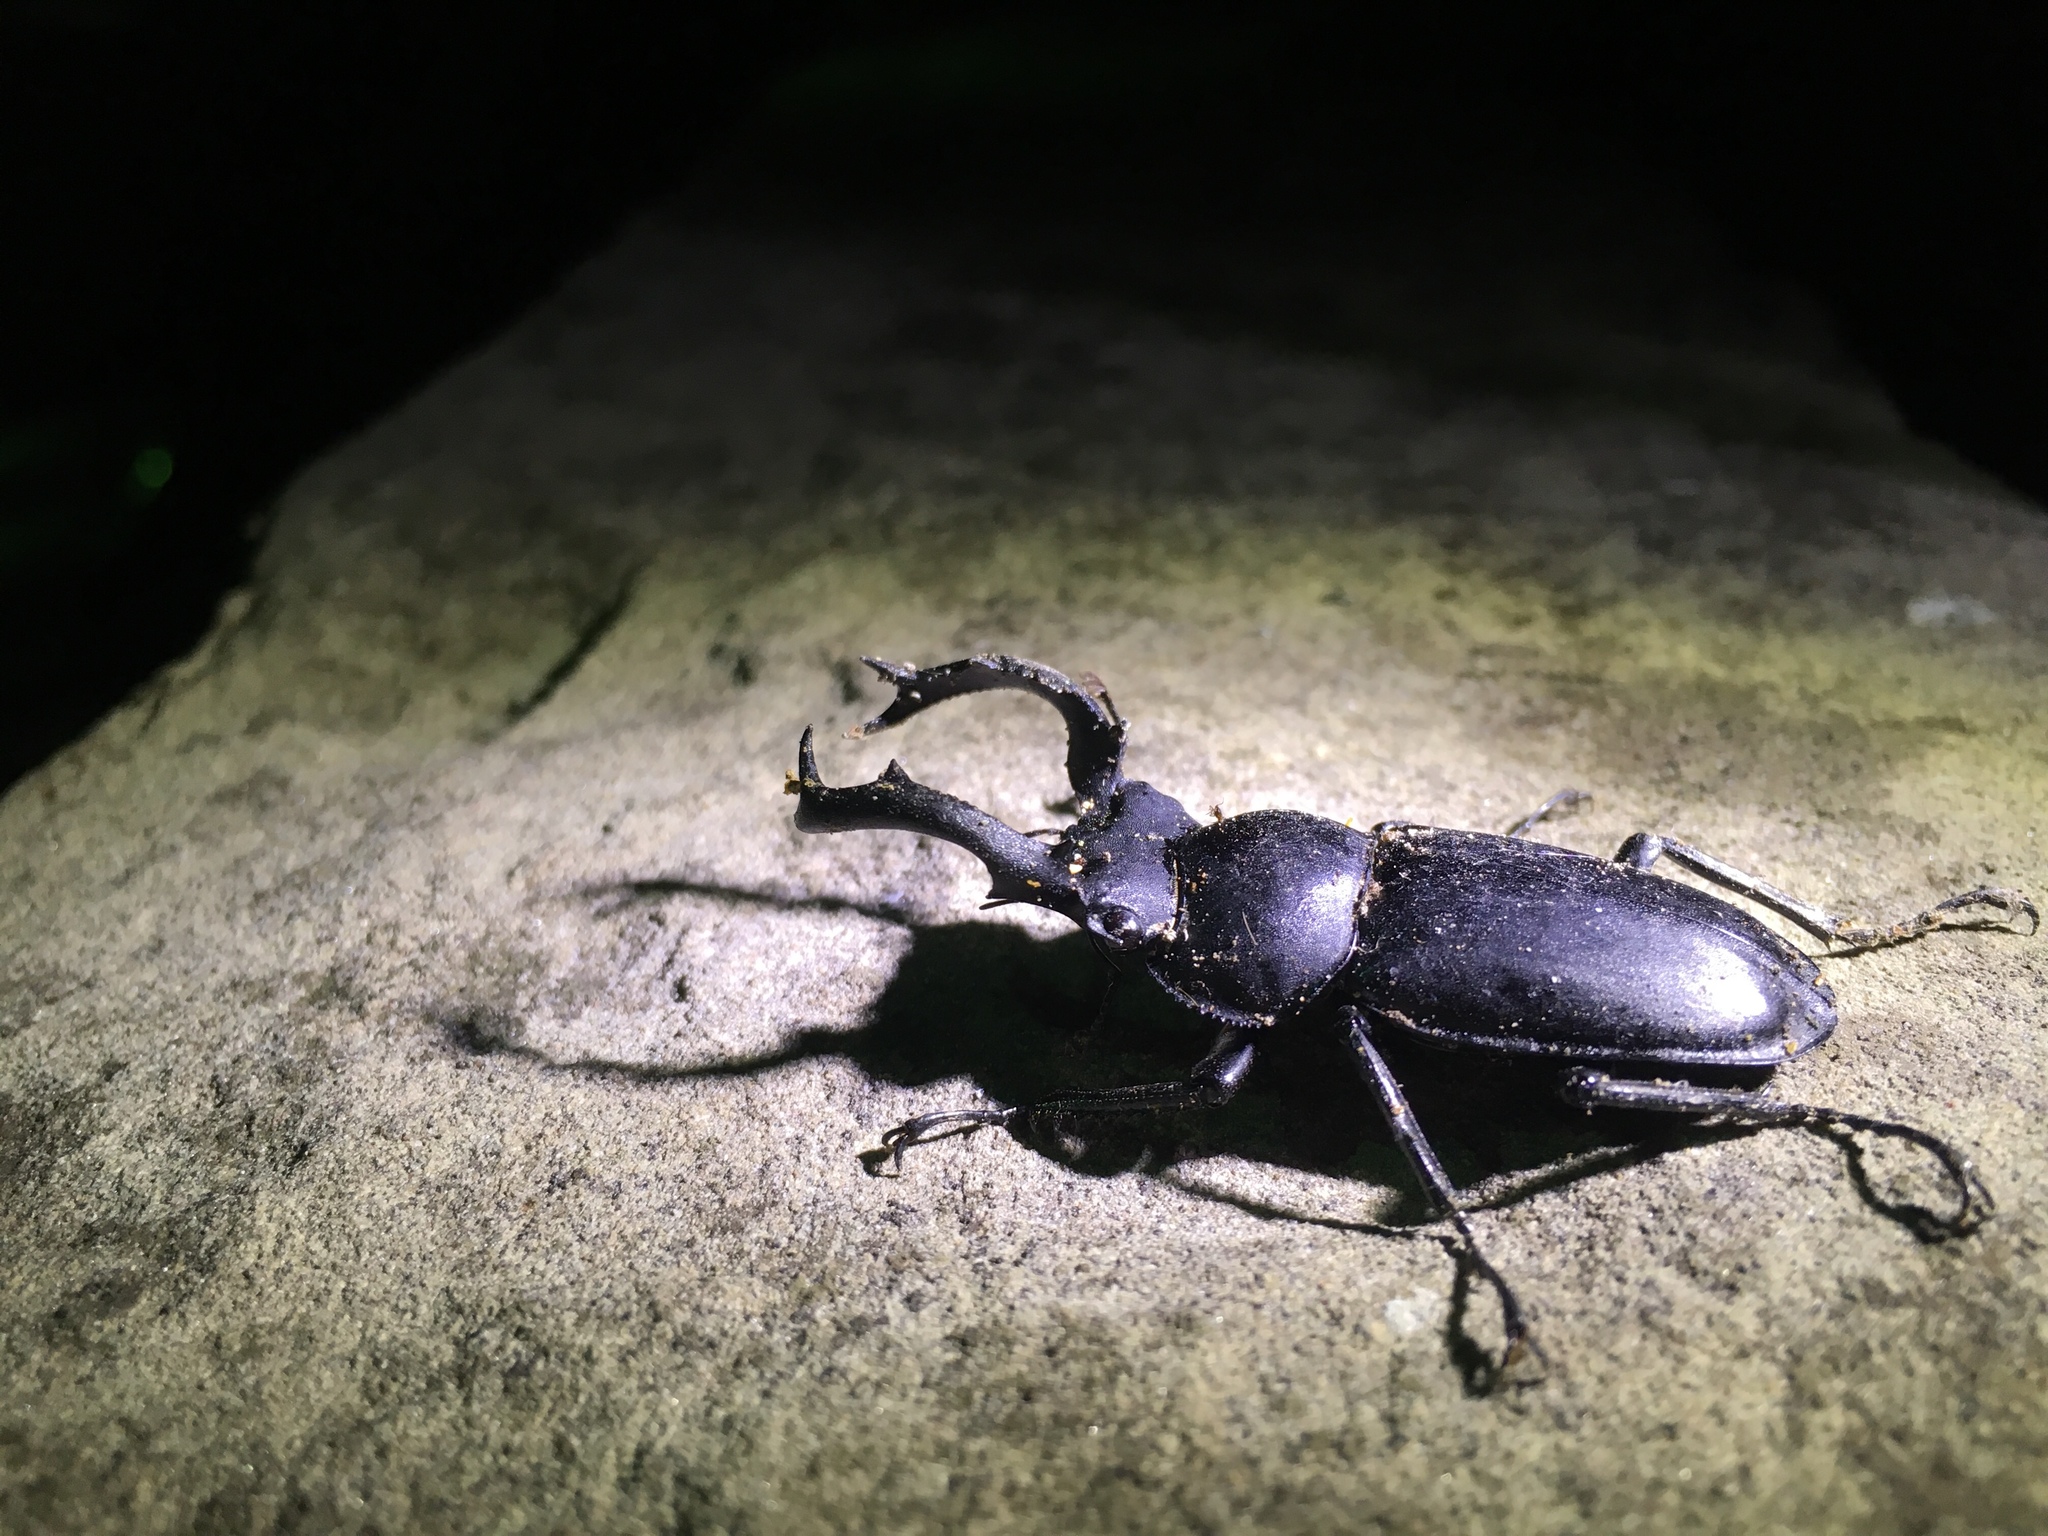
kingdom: Animalia
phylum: Arthropoda
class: Insecta
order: Coleoptera
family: Lucanidae
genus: Rhaetulus
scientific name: Rhaetulus crenatus
